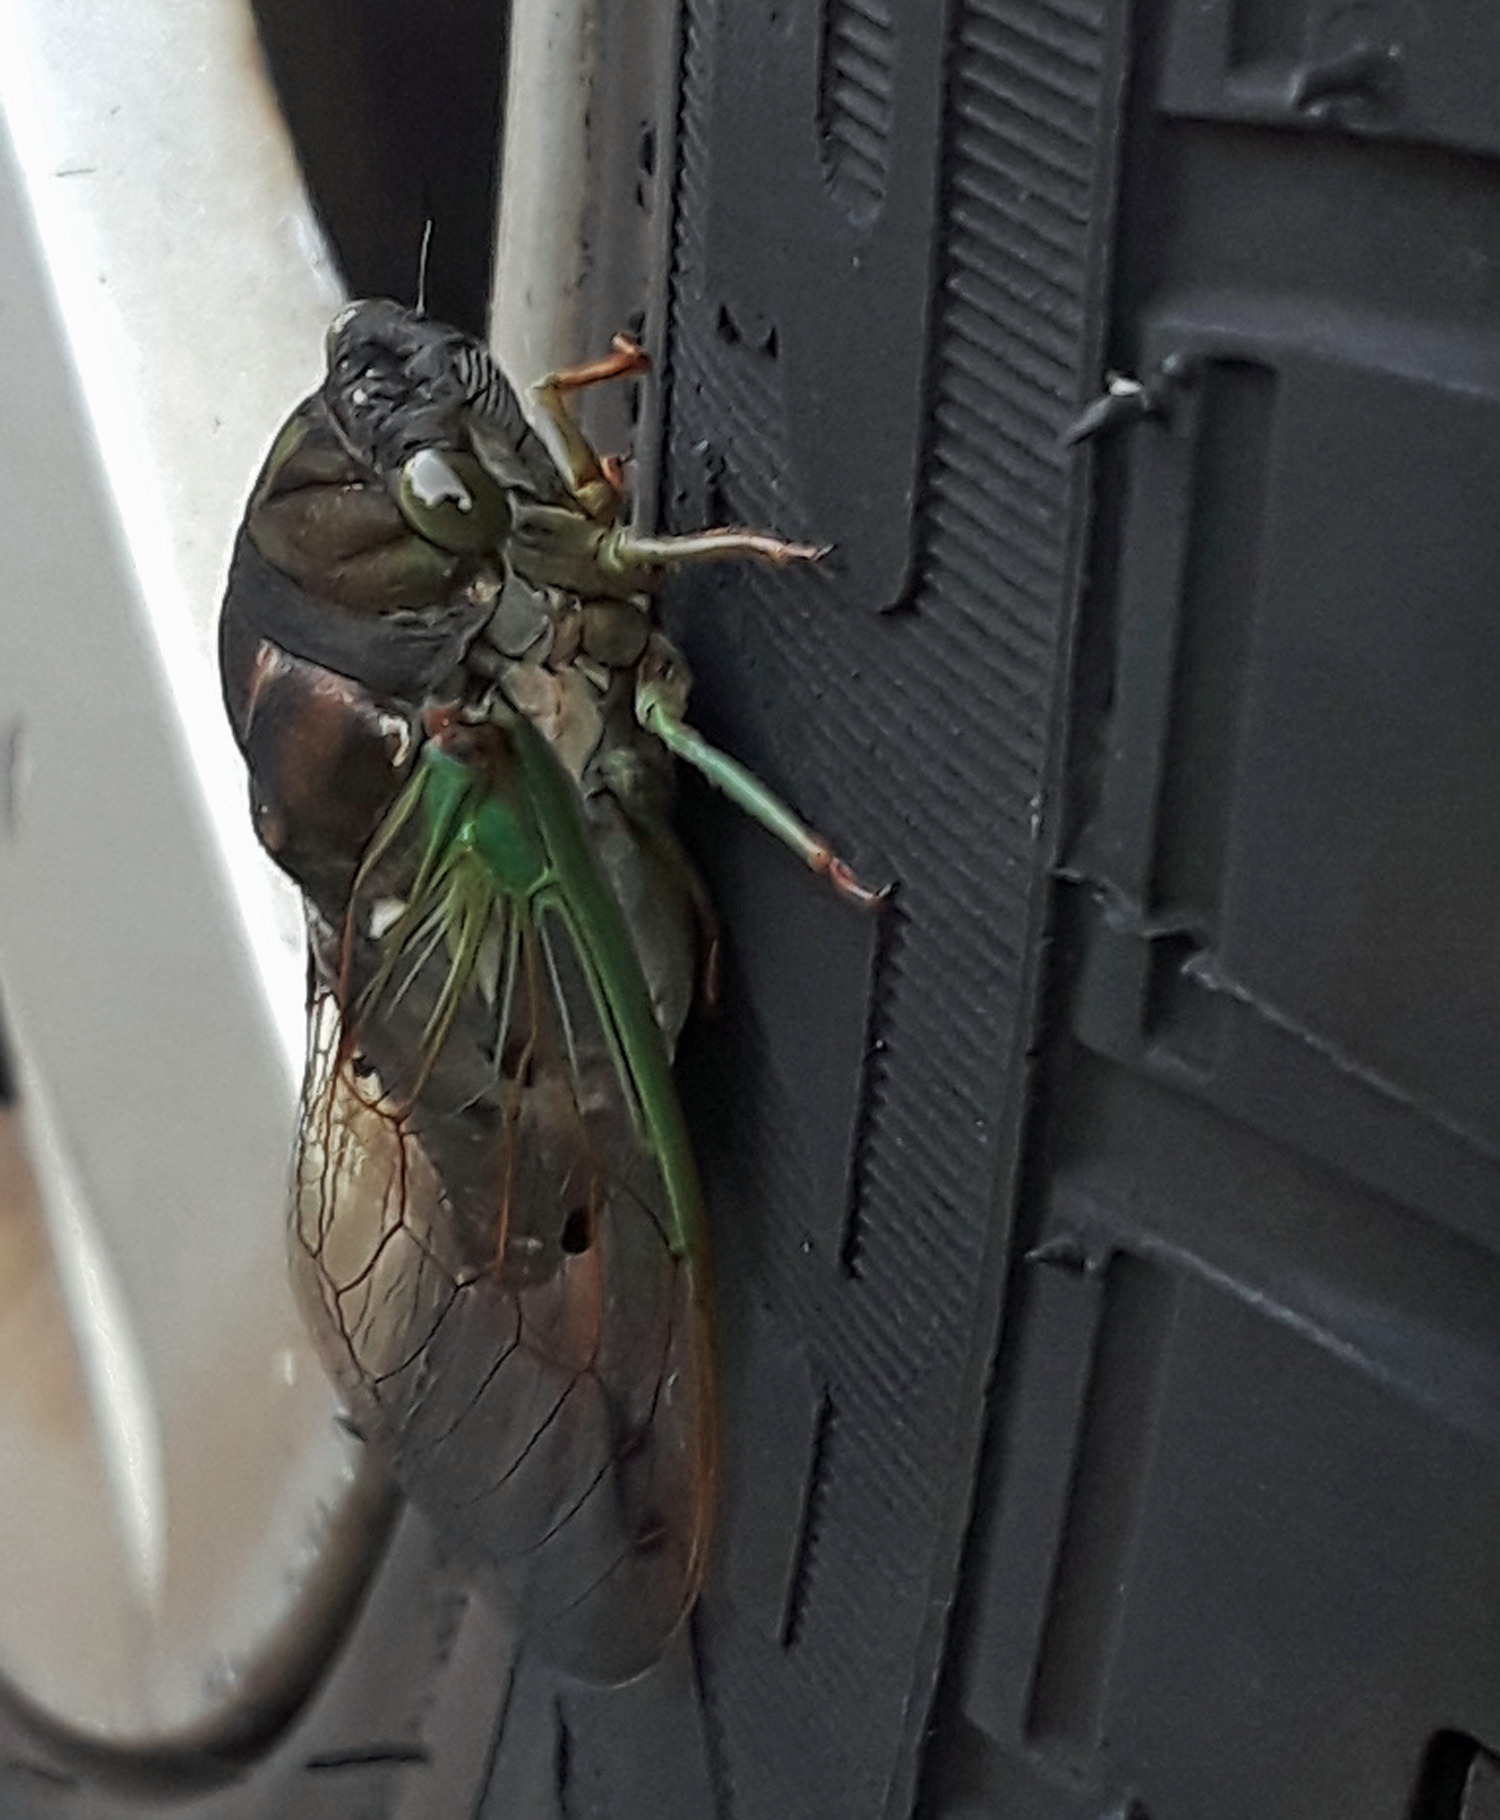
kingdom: Animalia
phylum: Arthropoda
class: Insecta
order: Hemiptera
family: Cicadidae
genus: Neotibicen
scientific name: Neotibicen tibicen
